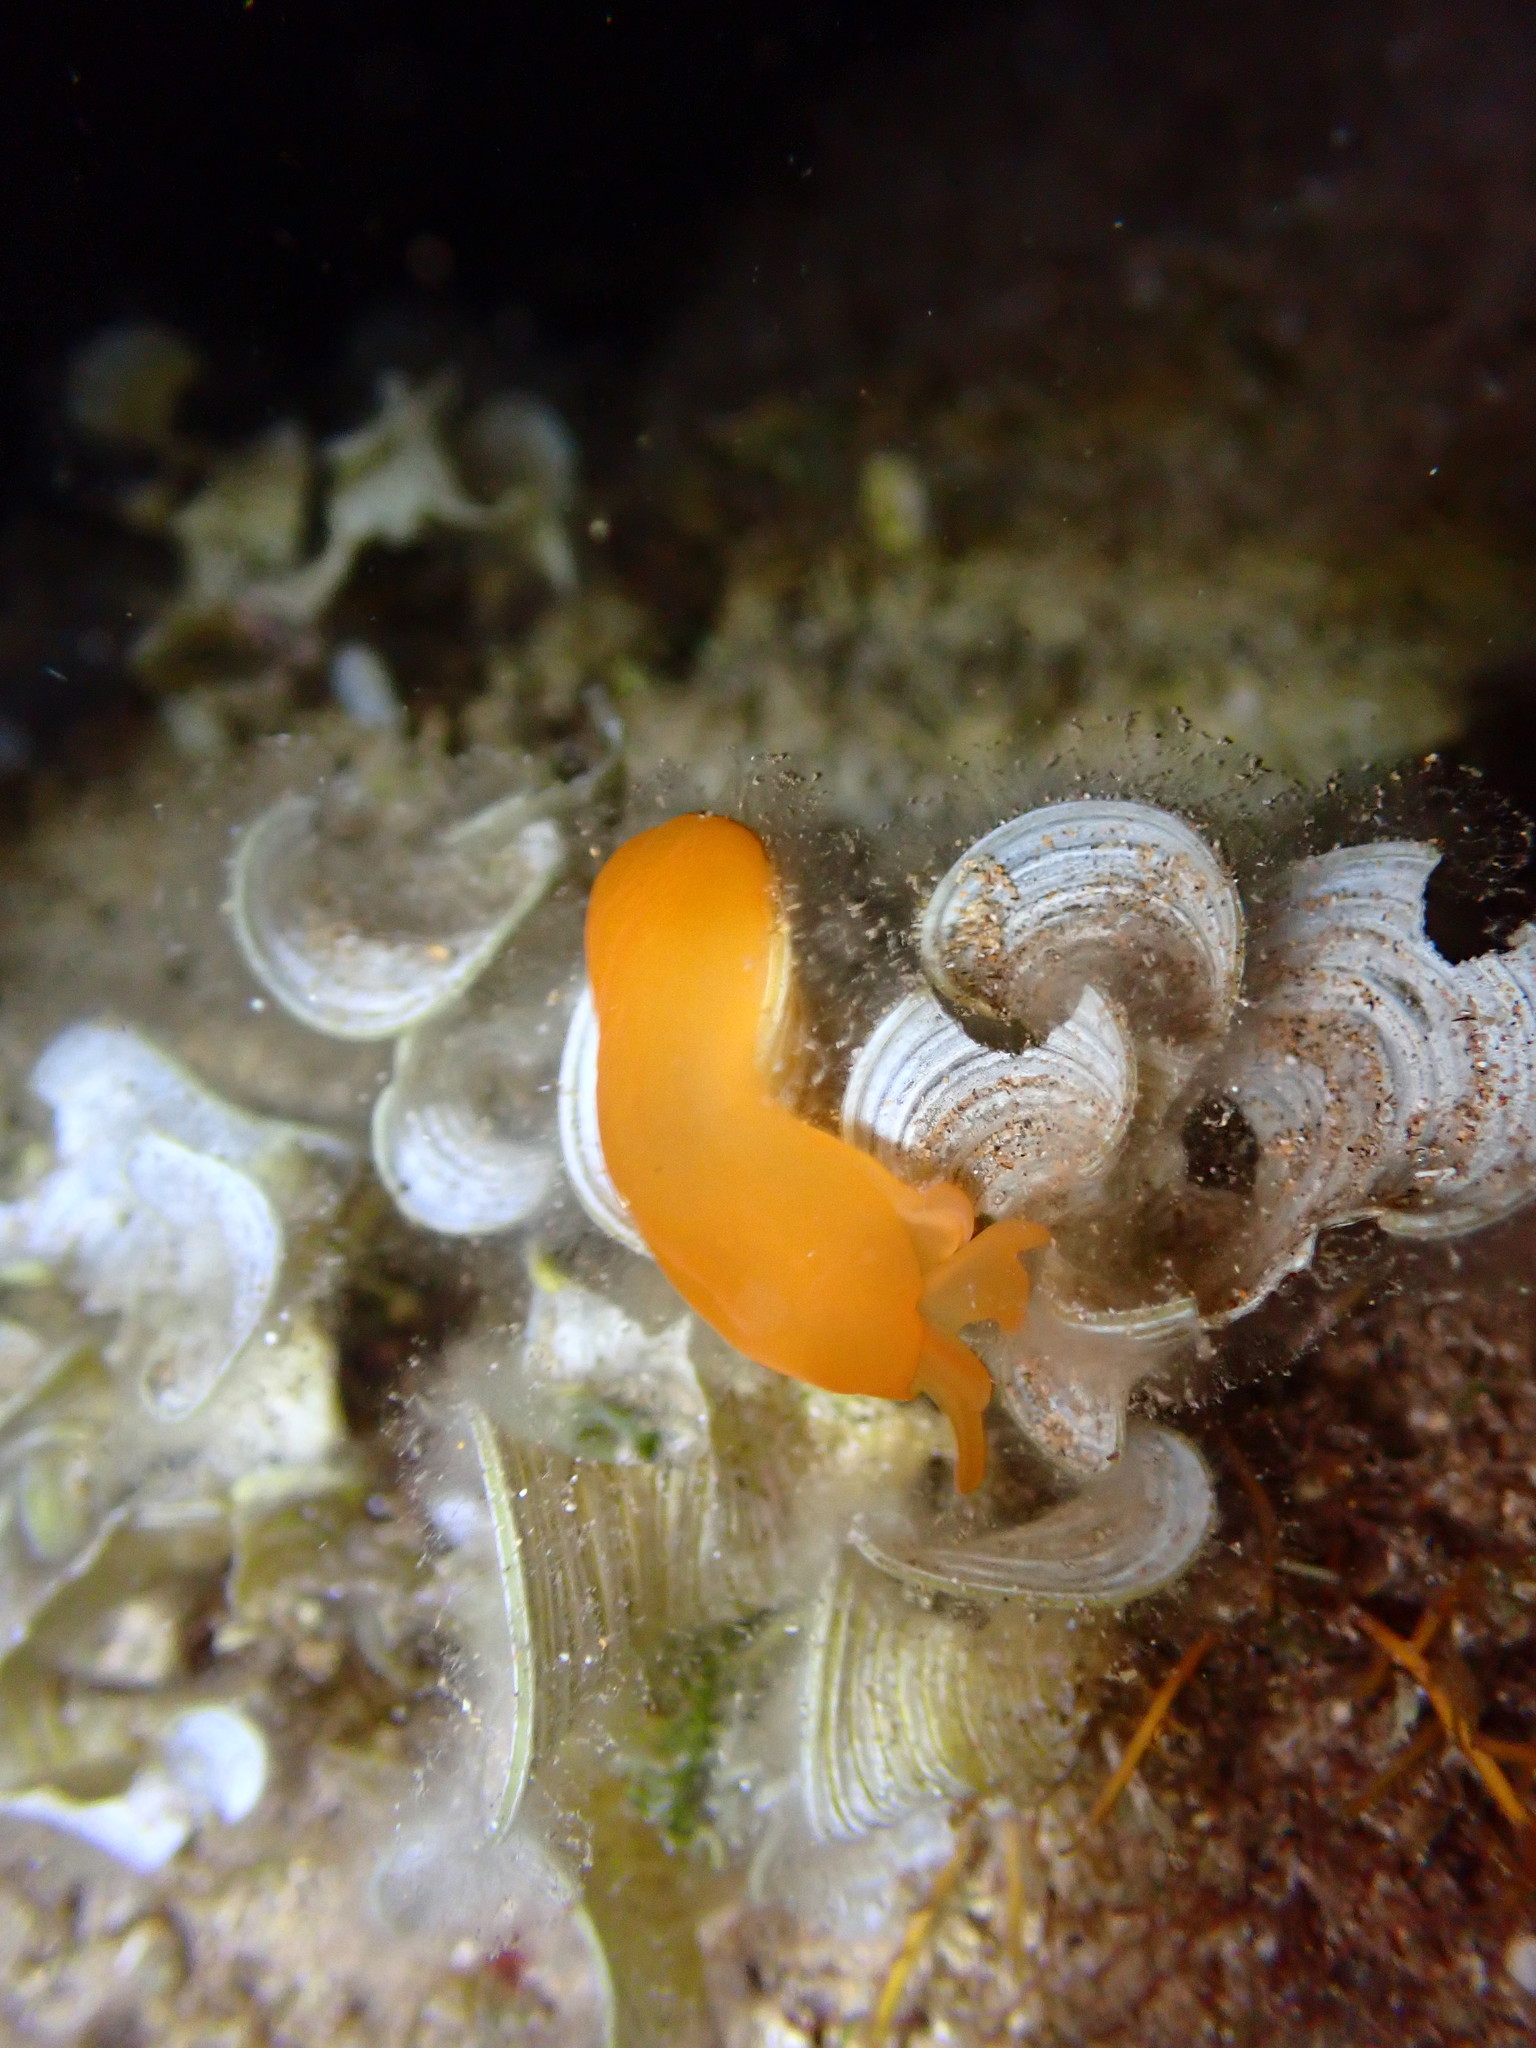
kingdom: Animalia
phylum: Mollusca
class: Gastropoda
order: Pleurobranchida
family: Pleurobranchidae
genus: Berthellina
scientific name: Berthellina delicata
